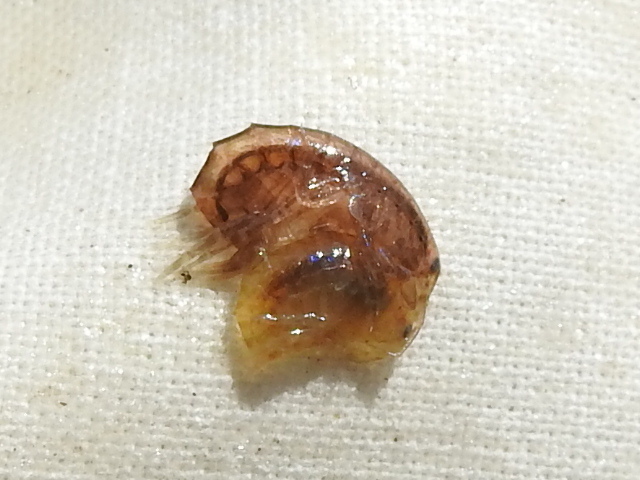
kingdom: Animalia
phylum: Arthropoda
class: Malacostraca
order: Amphipoda
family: Gammaridae
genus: Gammarus
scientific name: Gammarus mucronatus
